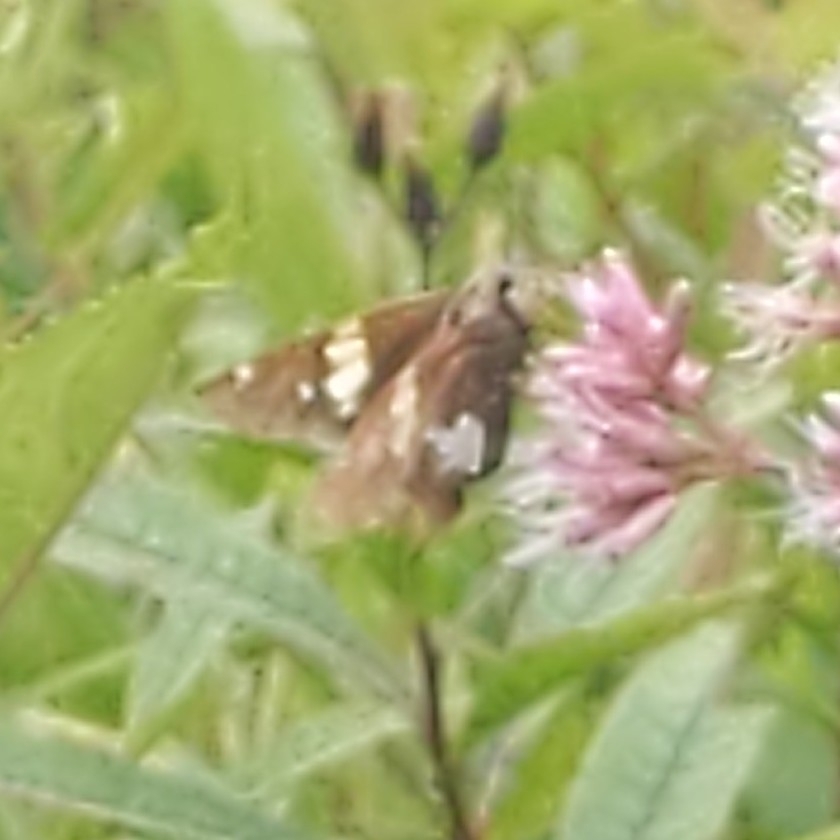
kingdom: Animalia
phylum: Arthropoda
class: Insecta
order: Lepidoptera
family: Hesperiidae
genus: Epargyreus
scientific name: Epargyreus clarus
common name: Silver-spotted skipper
